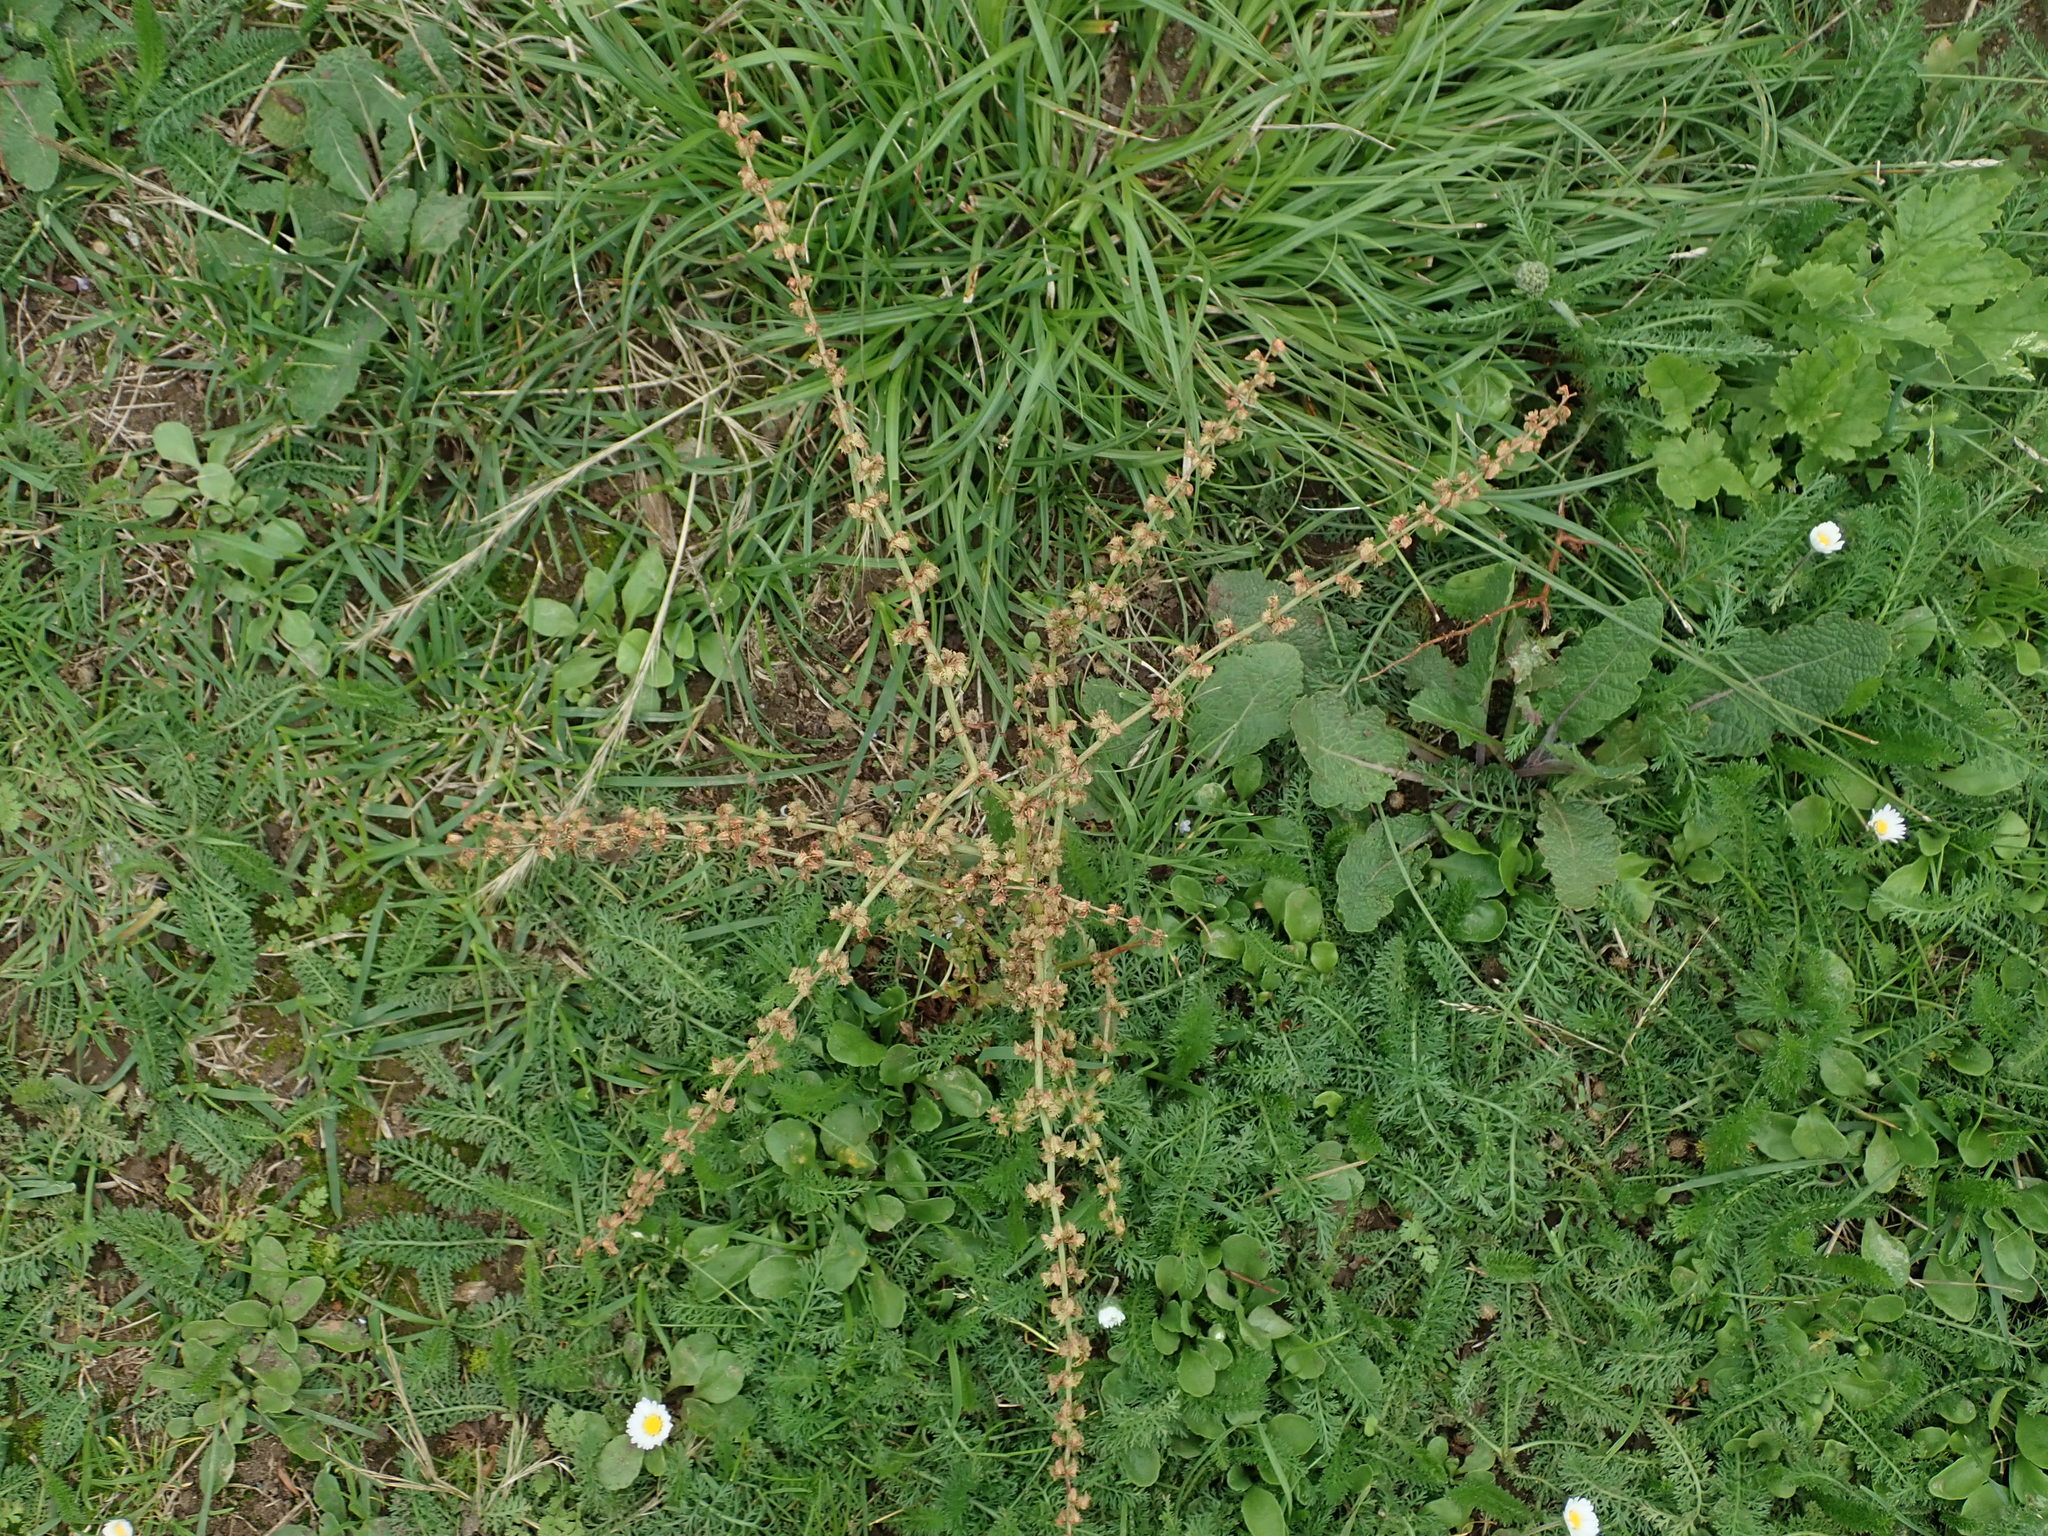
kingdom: Plantae
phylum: Tracheophyta
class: Magnoliopsida
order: Caryophyllales
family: Polygonaceae
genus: Rumex
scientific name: Rumex pulcher
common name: Fiddle dock
